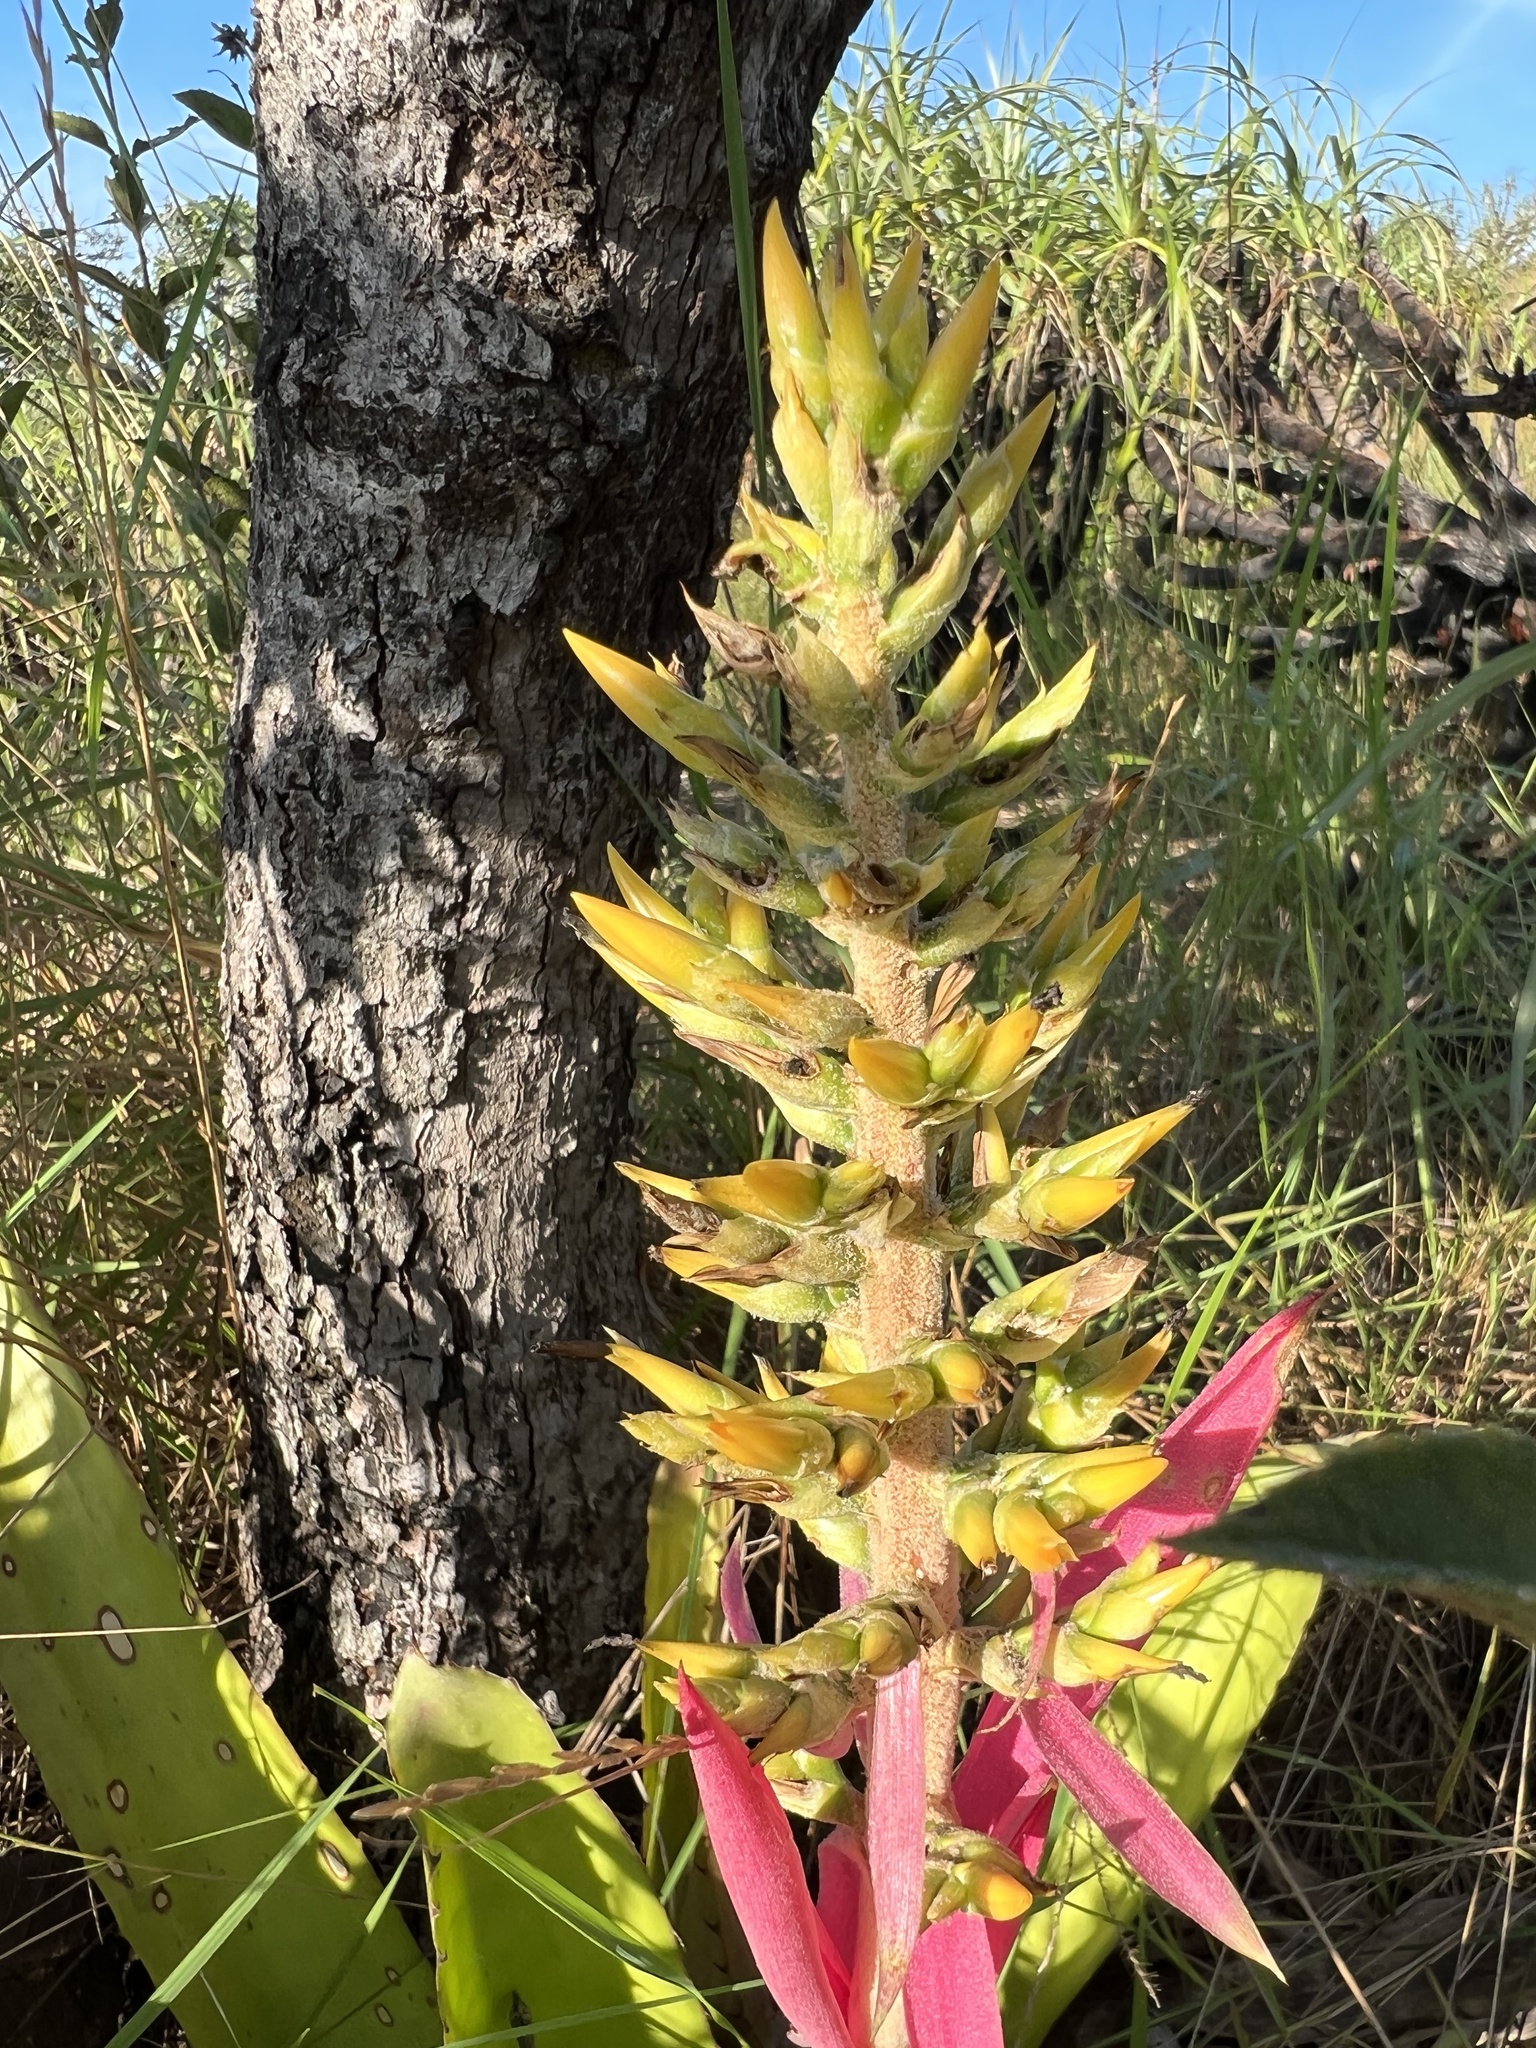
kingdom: Plantae
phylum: Tracheophyta
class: Liliopsida
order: Poales
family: Bromeliaceae
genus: Aechmea
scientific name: Aechmea stenosepala
